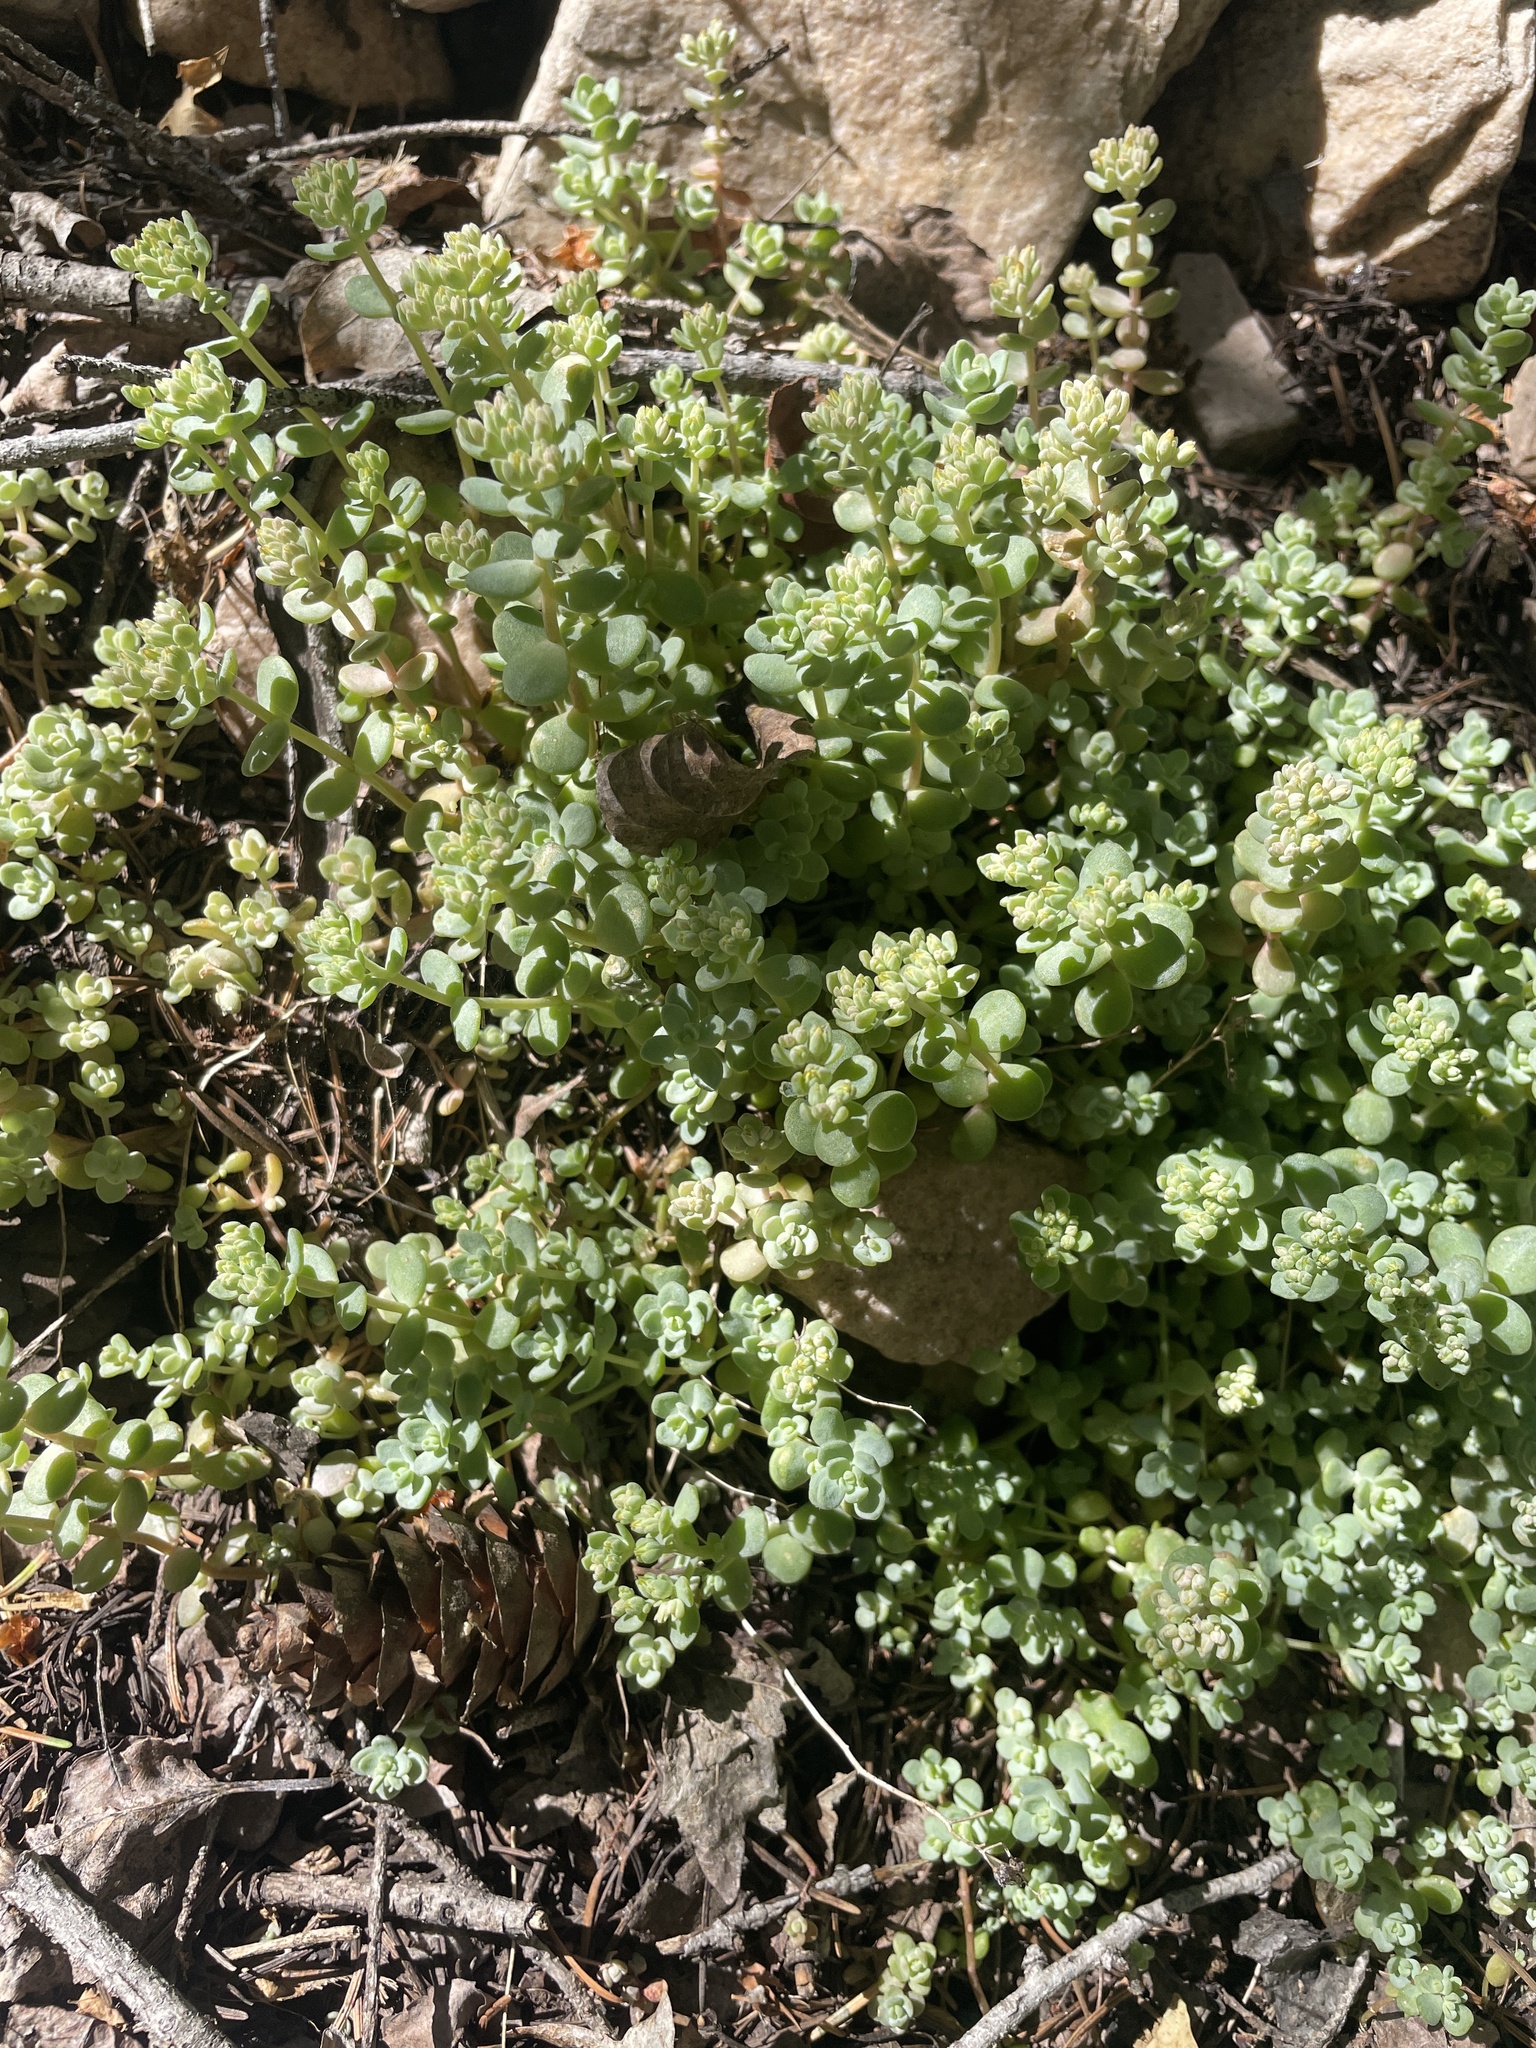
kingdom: Plantae
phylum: Tracheophyta
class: Magnoliopsida
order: Saxifragales
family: Crassulaceae
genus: Sedum
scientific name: Sedum debile
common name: Weak-stem stonecrop
